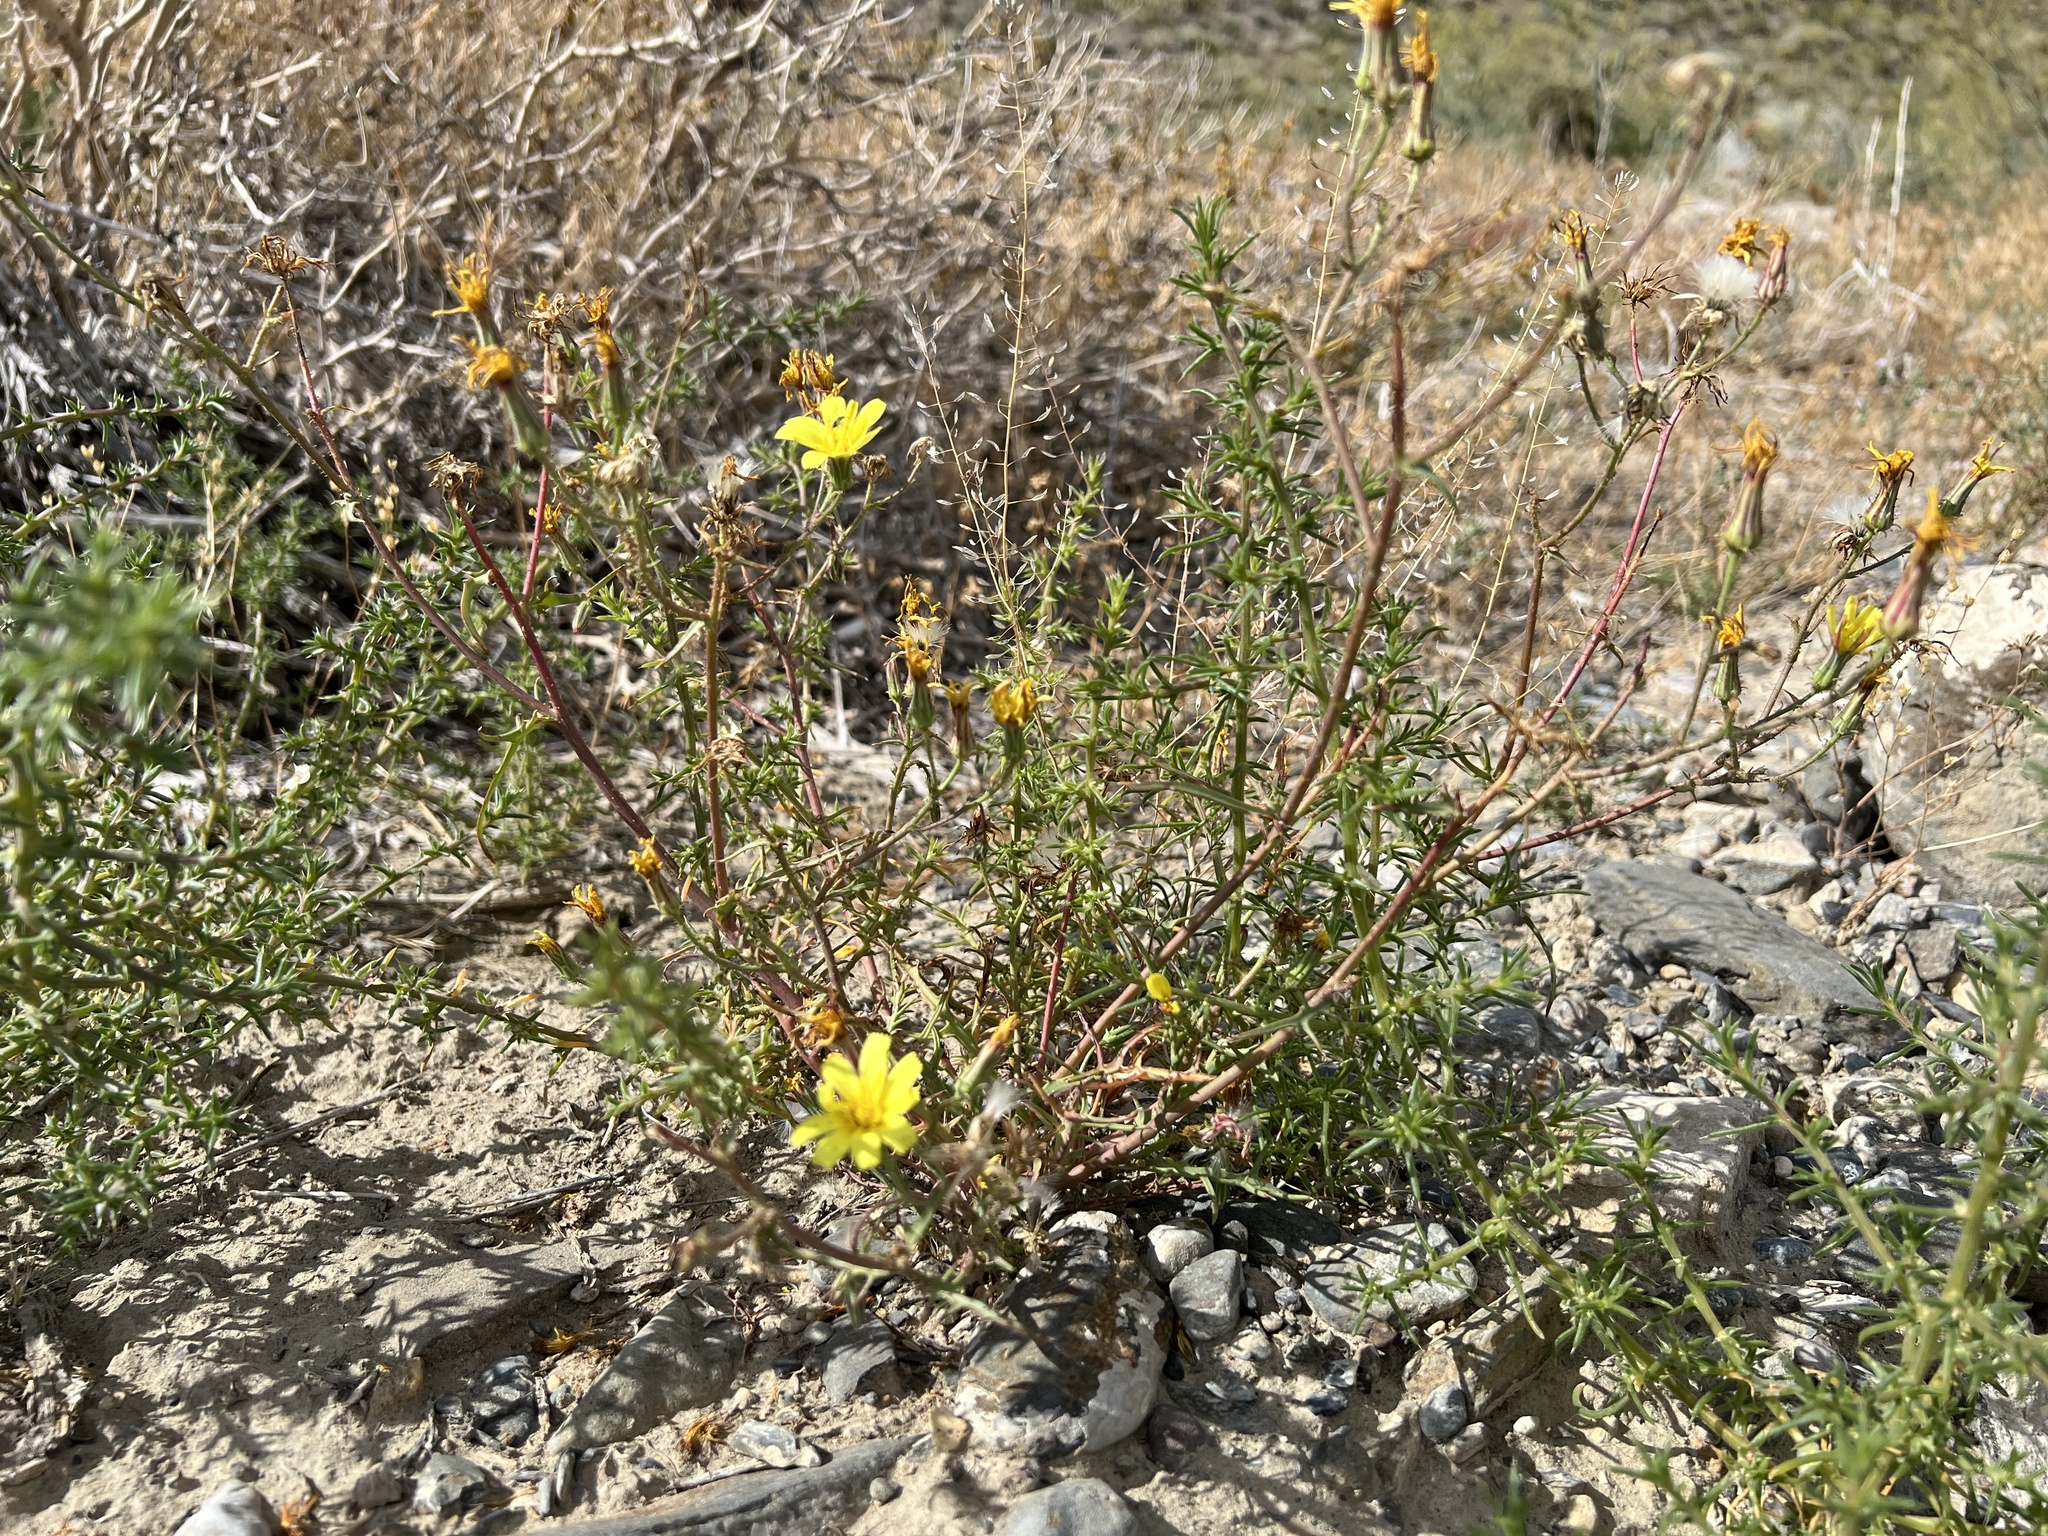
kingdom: Plantae
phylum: Tracheophyta
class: Magnoliopsida
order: Asterales
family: Asteraceae
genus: Calycoseris
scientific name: Calycoseris parryi
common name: Yellow tackstem
